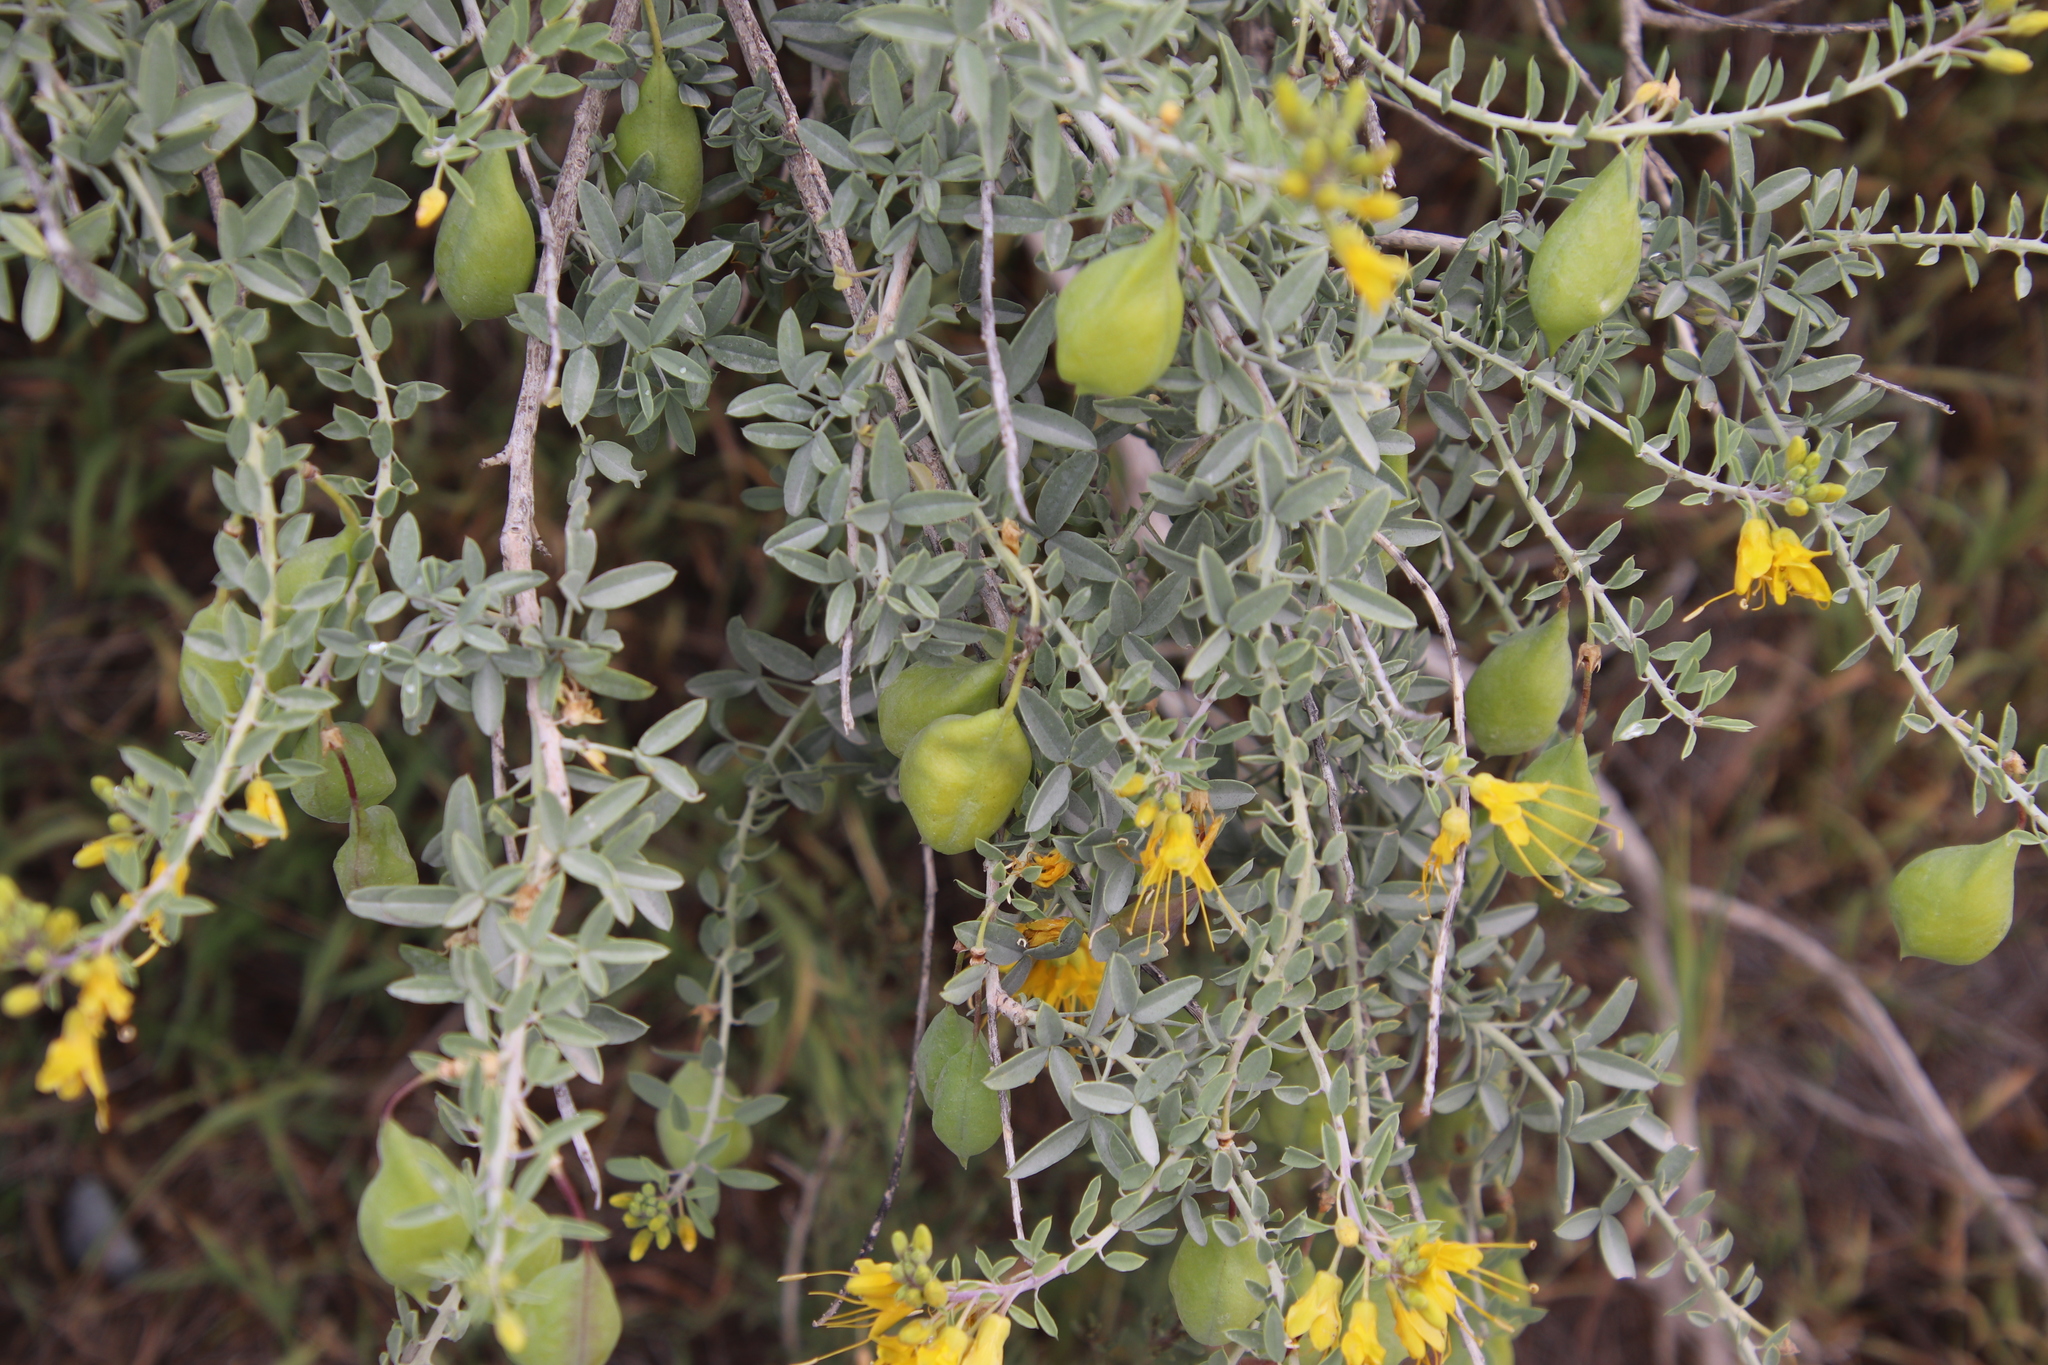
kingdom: Plantae
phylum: Tracheophyta
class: Magnoliopsida
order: Brassicales
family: Cleomaceae
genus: Cleomella
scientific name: Cleomella arborea
